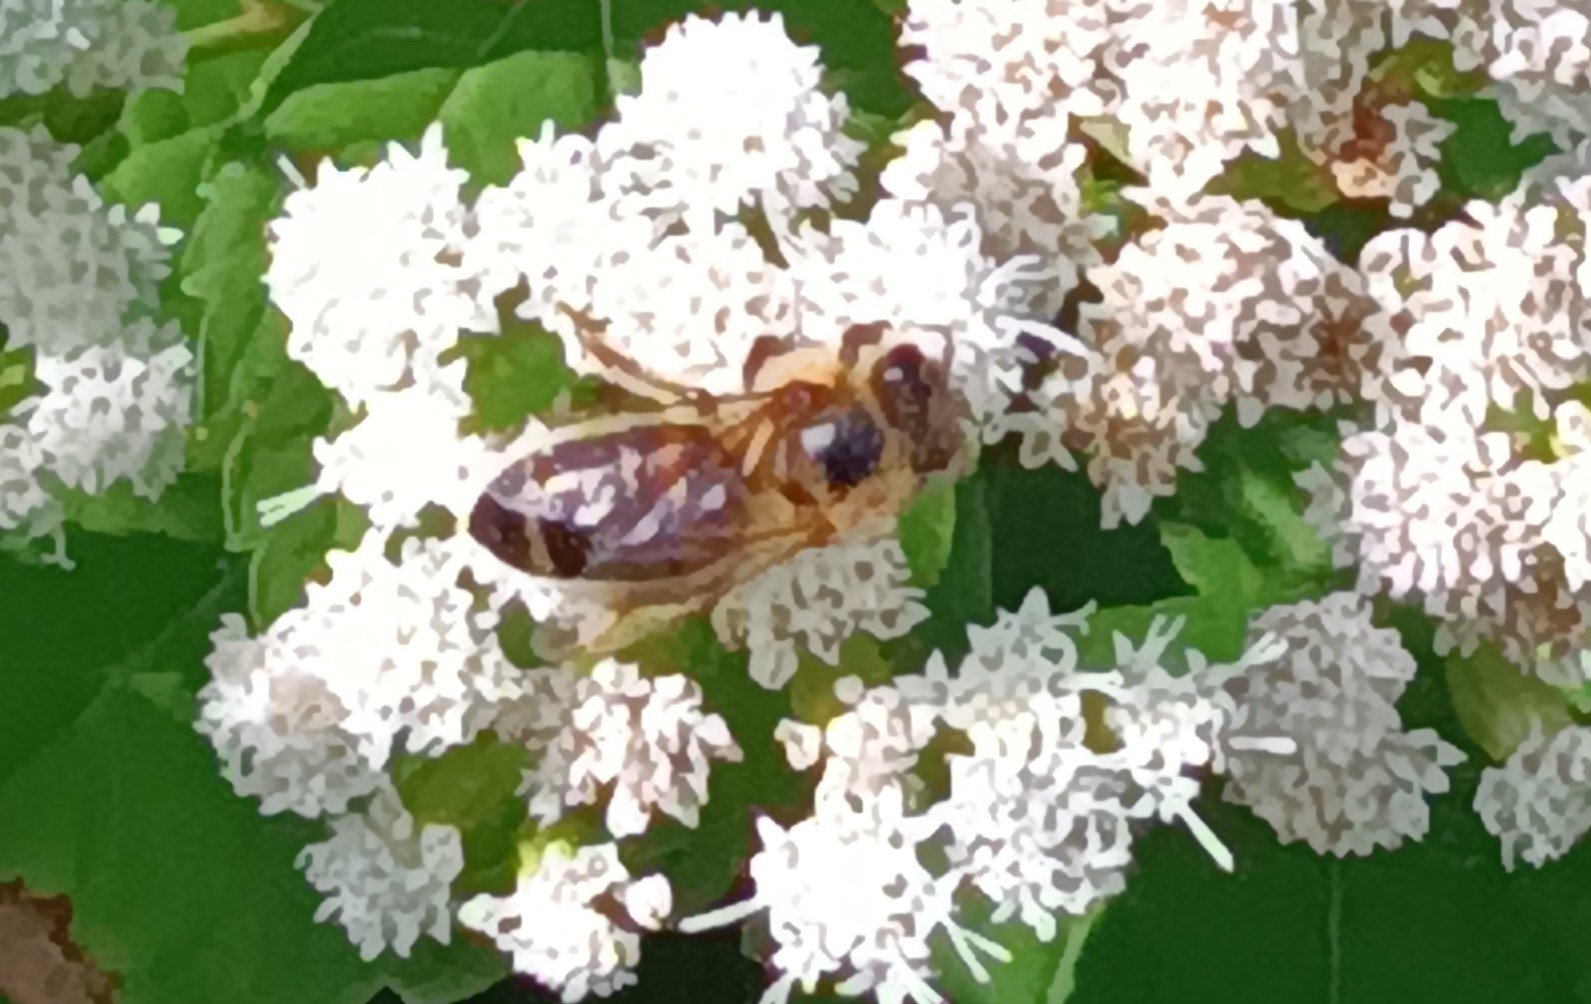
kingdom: Animalia
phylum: Arthropoda
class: Insecta
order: Hymenoptera
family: Apidae
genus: Apis
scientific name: Apis mellifera
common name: Honey bee
